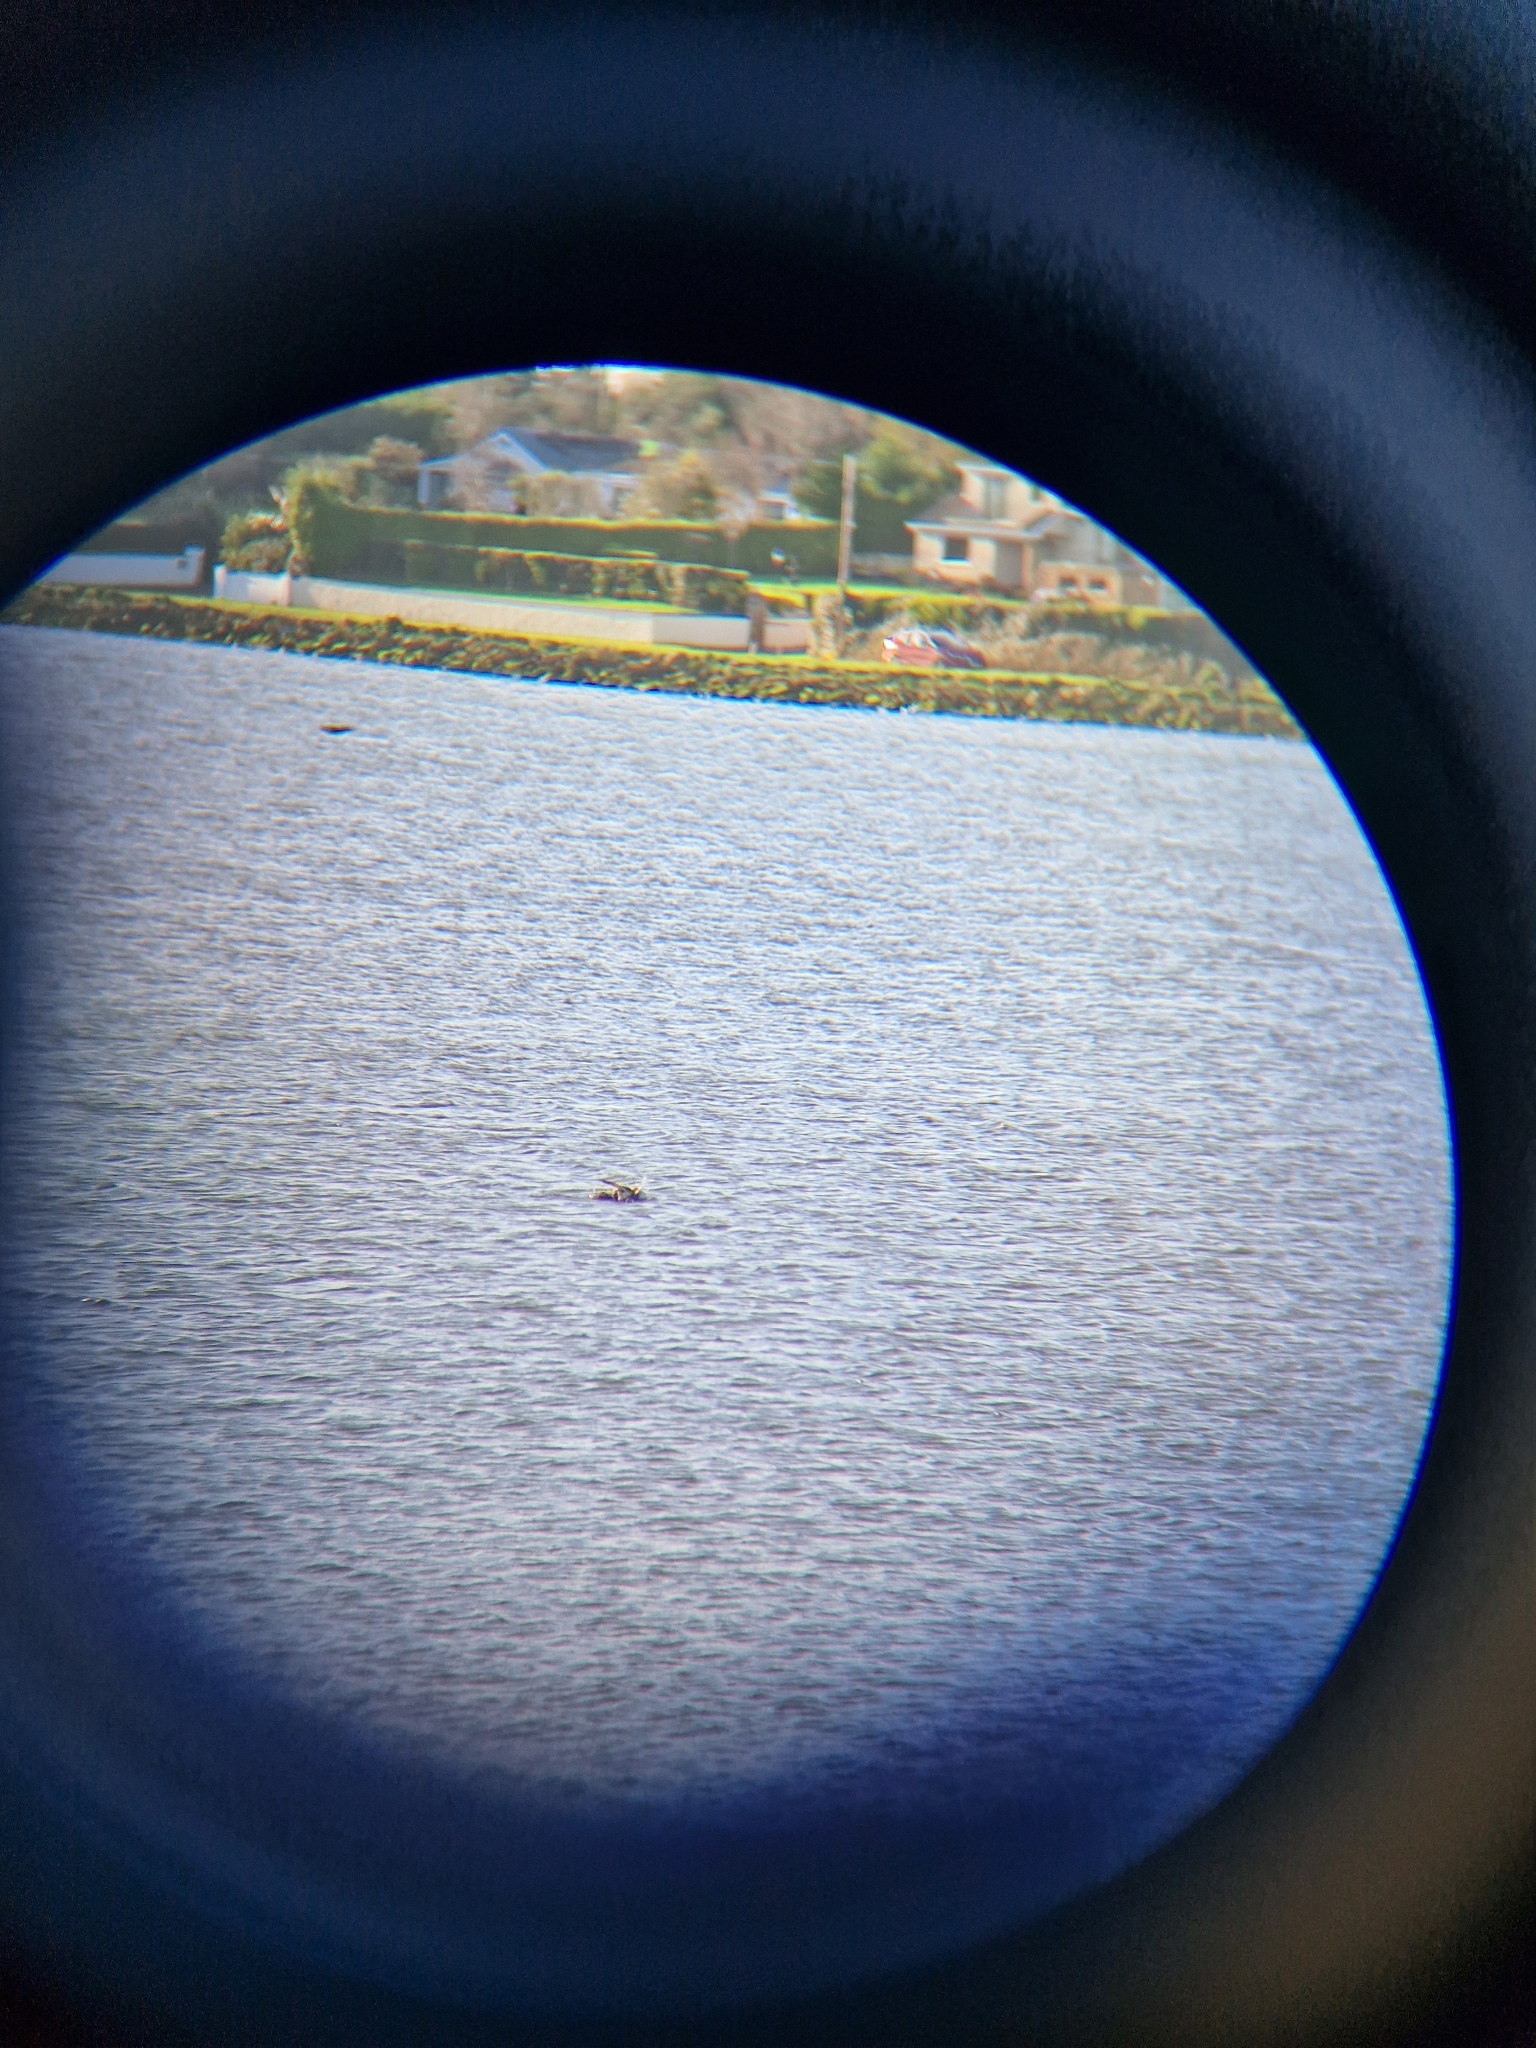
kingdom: Animalia
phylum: Chordata
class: Aves
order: Anseriformes
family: Anatidae
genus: Mergus
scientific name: Mergus serrator
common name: Red-breasted merganser
